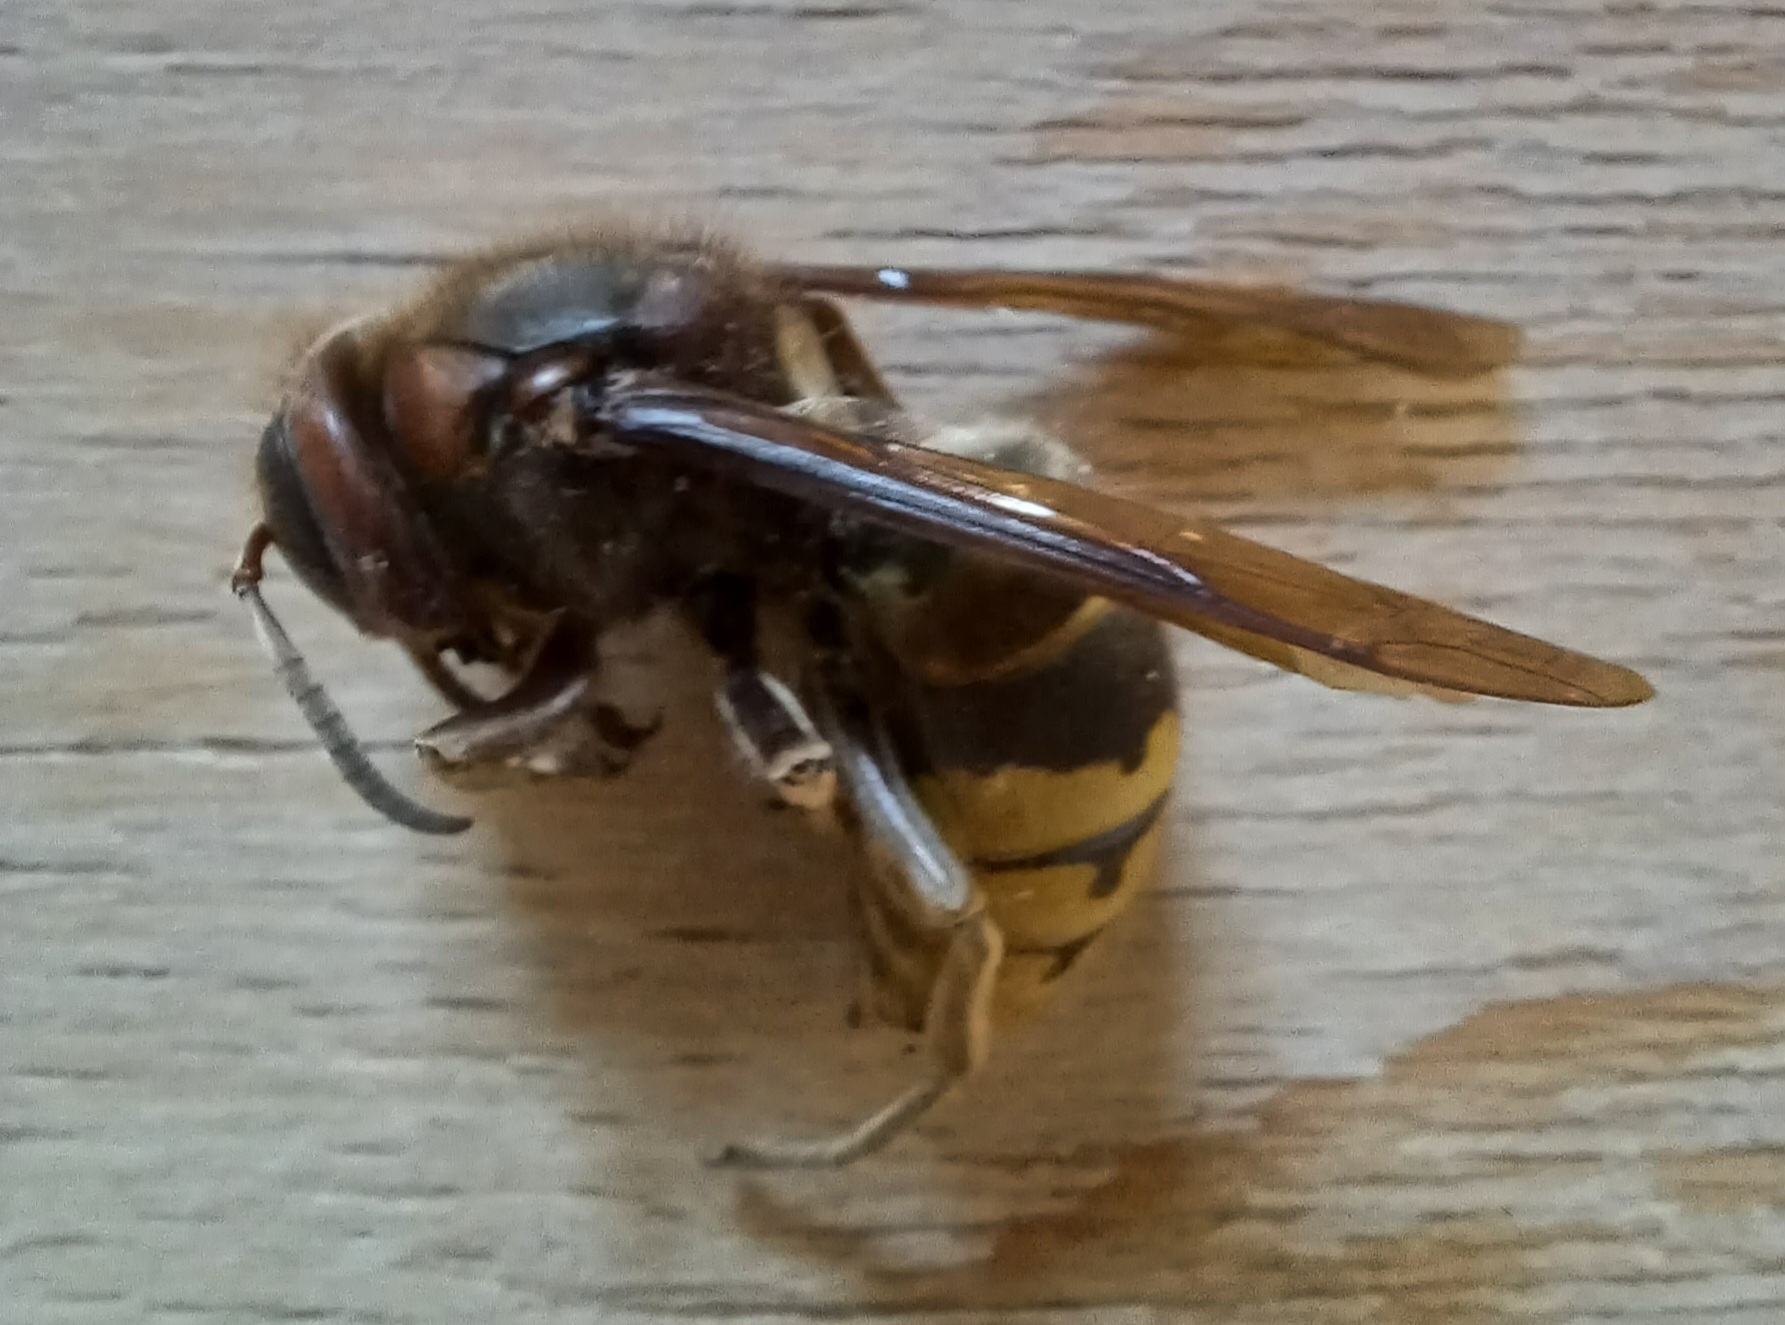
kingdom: Animalia
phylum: Arthropoda
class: Insecta
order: Hymenoptera
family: Vespidae
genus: Vespa
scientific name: Vespa crabro
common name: Hornet
